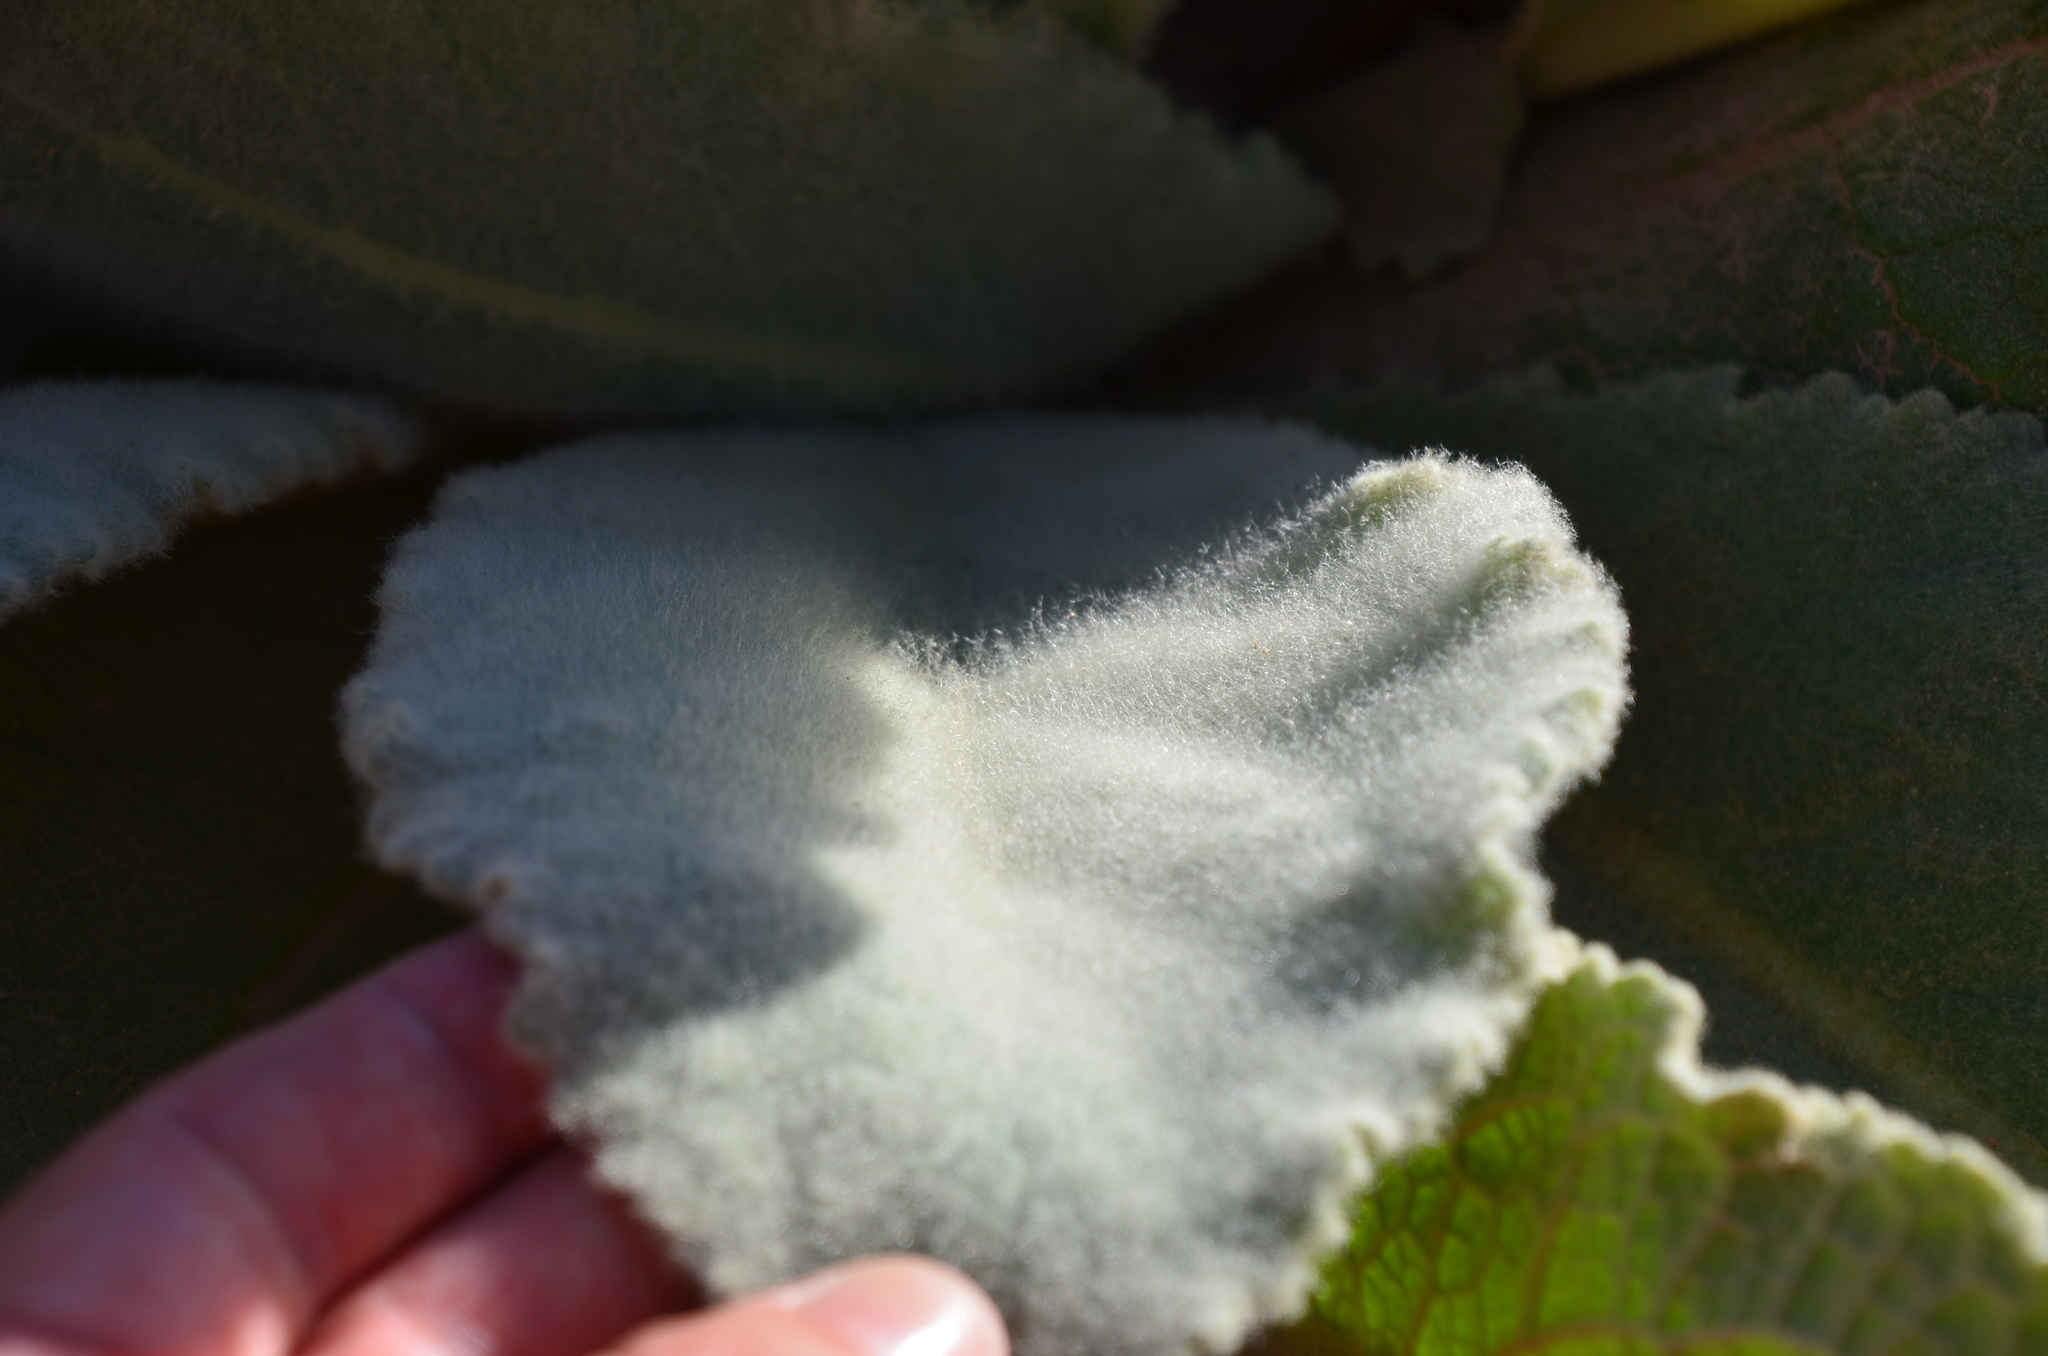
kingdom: Plantae
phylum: Tracheophyta
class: Magnoliopsida
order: Lamiales
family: Scrophulariaceae
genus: Verbascum
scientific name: Verbascum thapsus
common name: Common mullein
